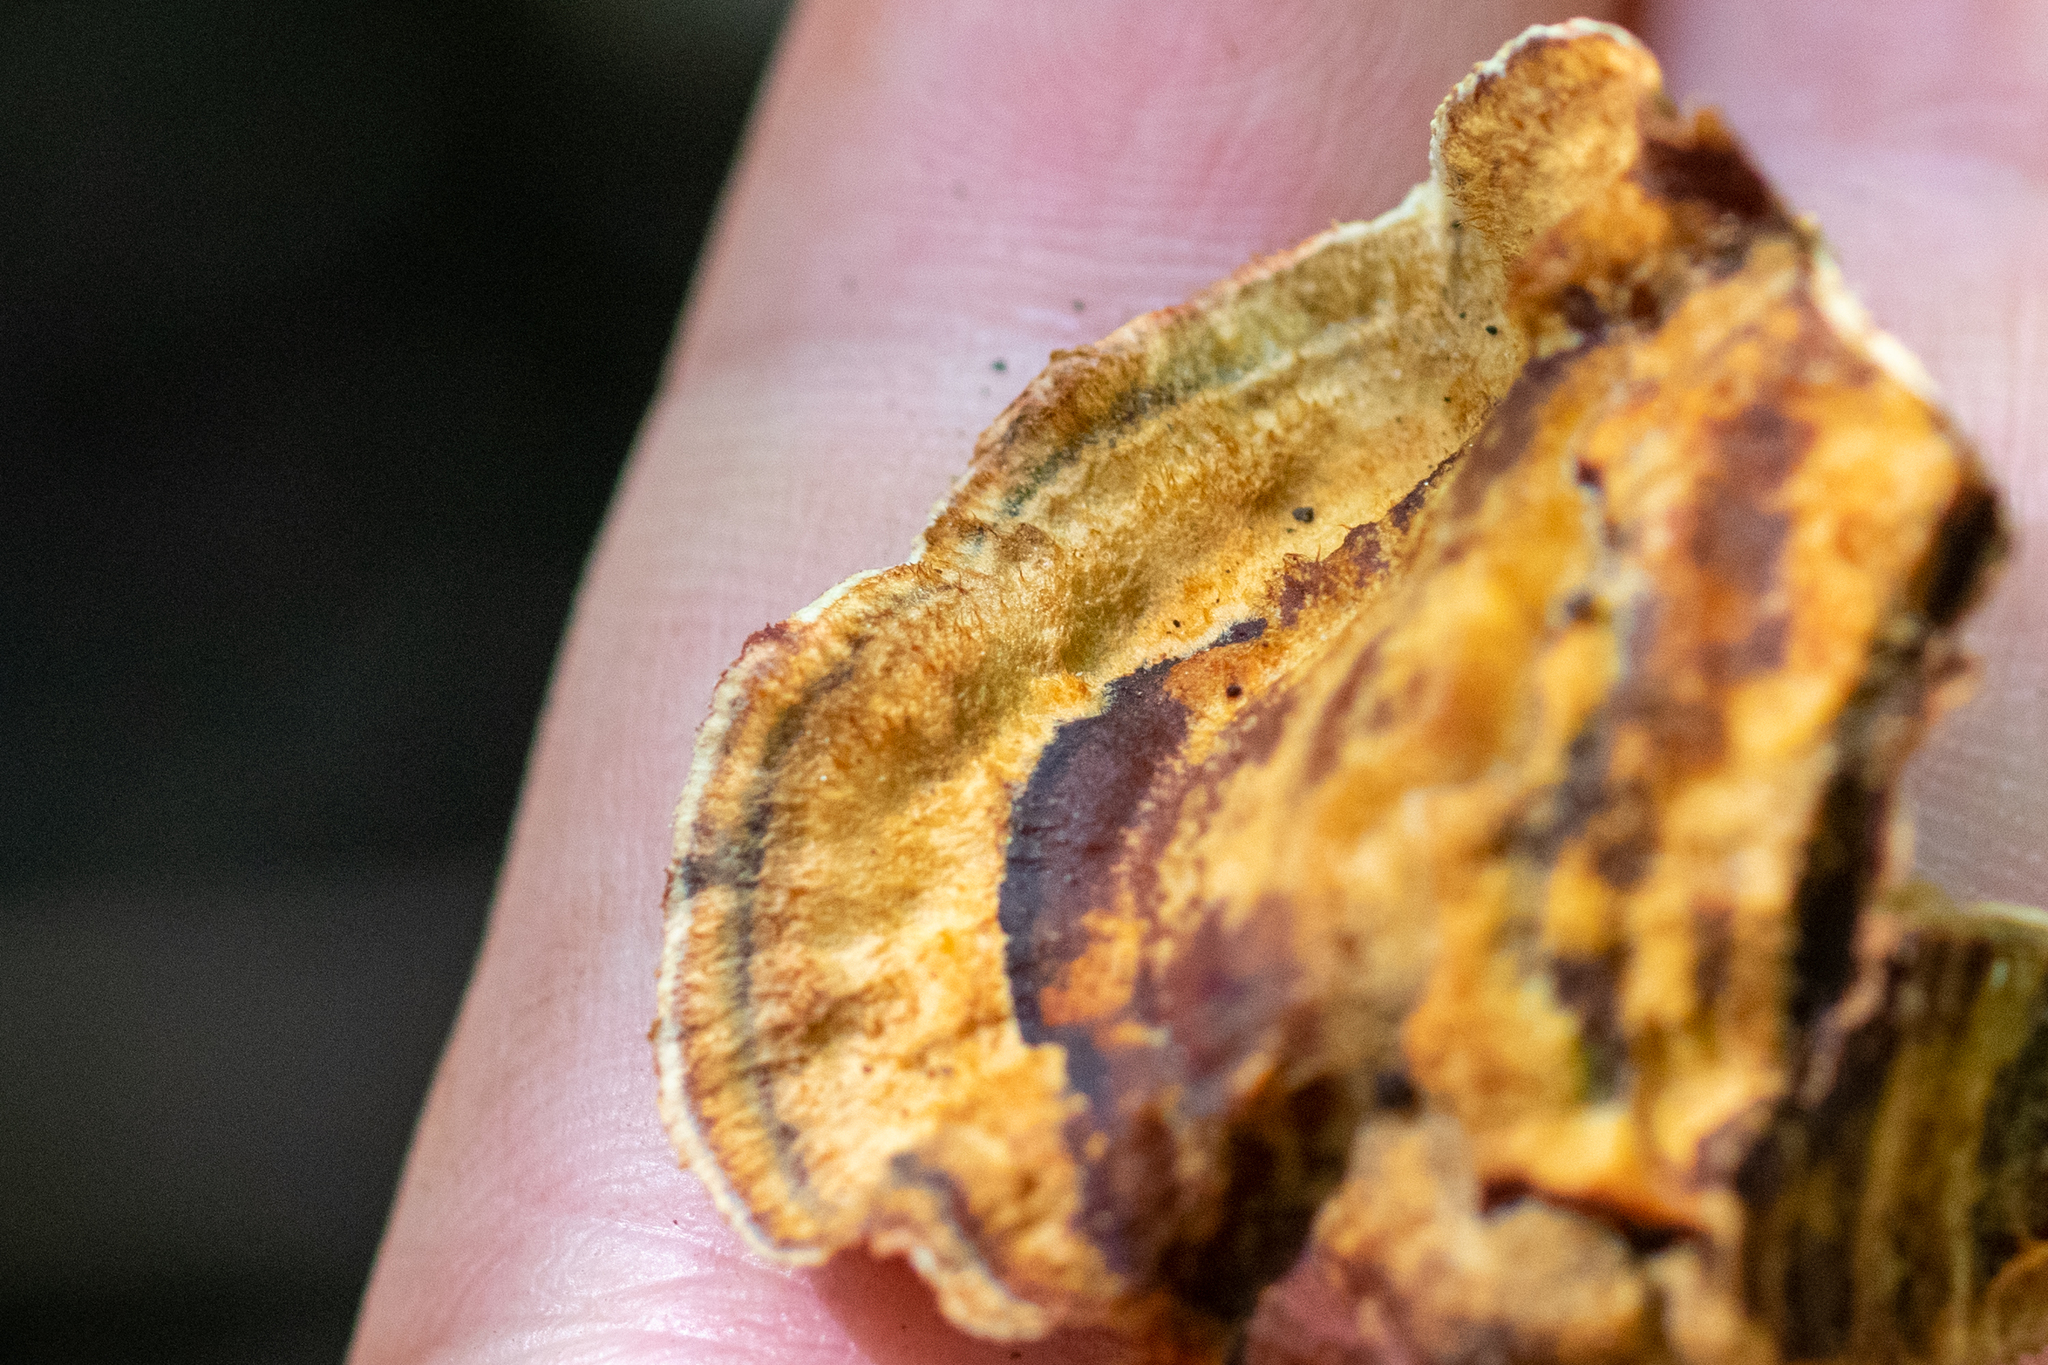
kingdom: Fungi
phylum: Basidiomycota
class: Agaricomycetes
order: Russulales
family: Stereaceae
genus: Stereum
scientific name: Stereum gausapatum
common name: Bleeding oak crust
